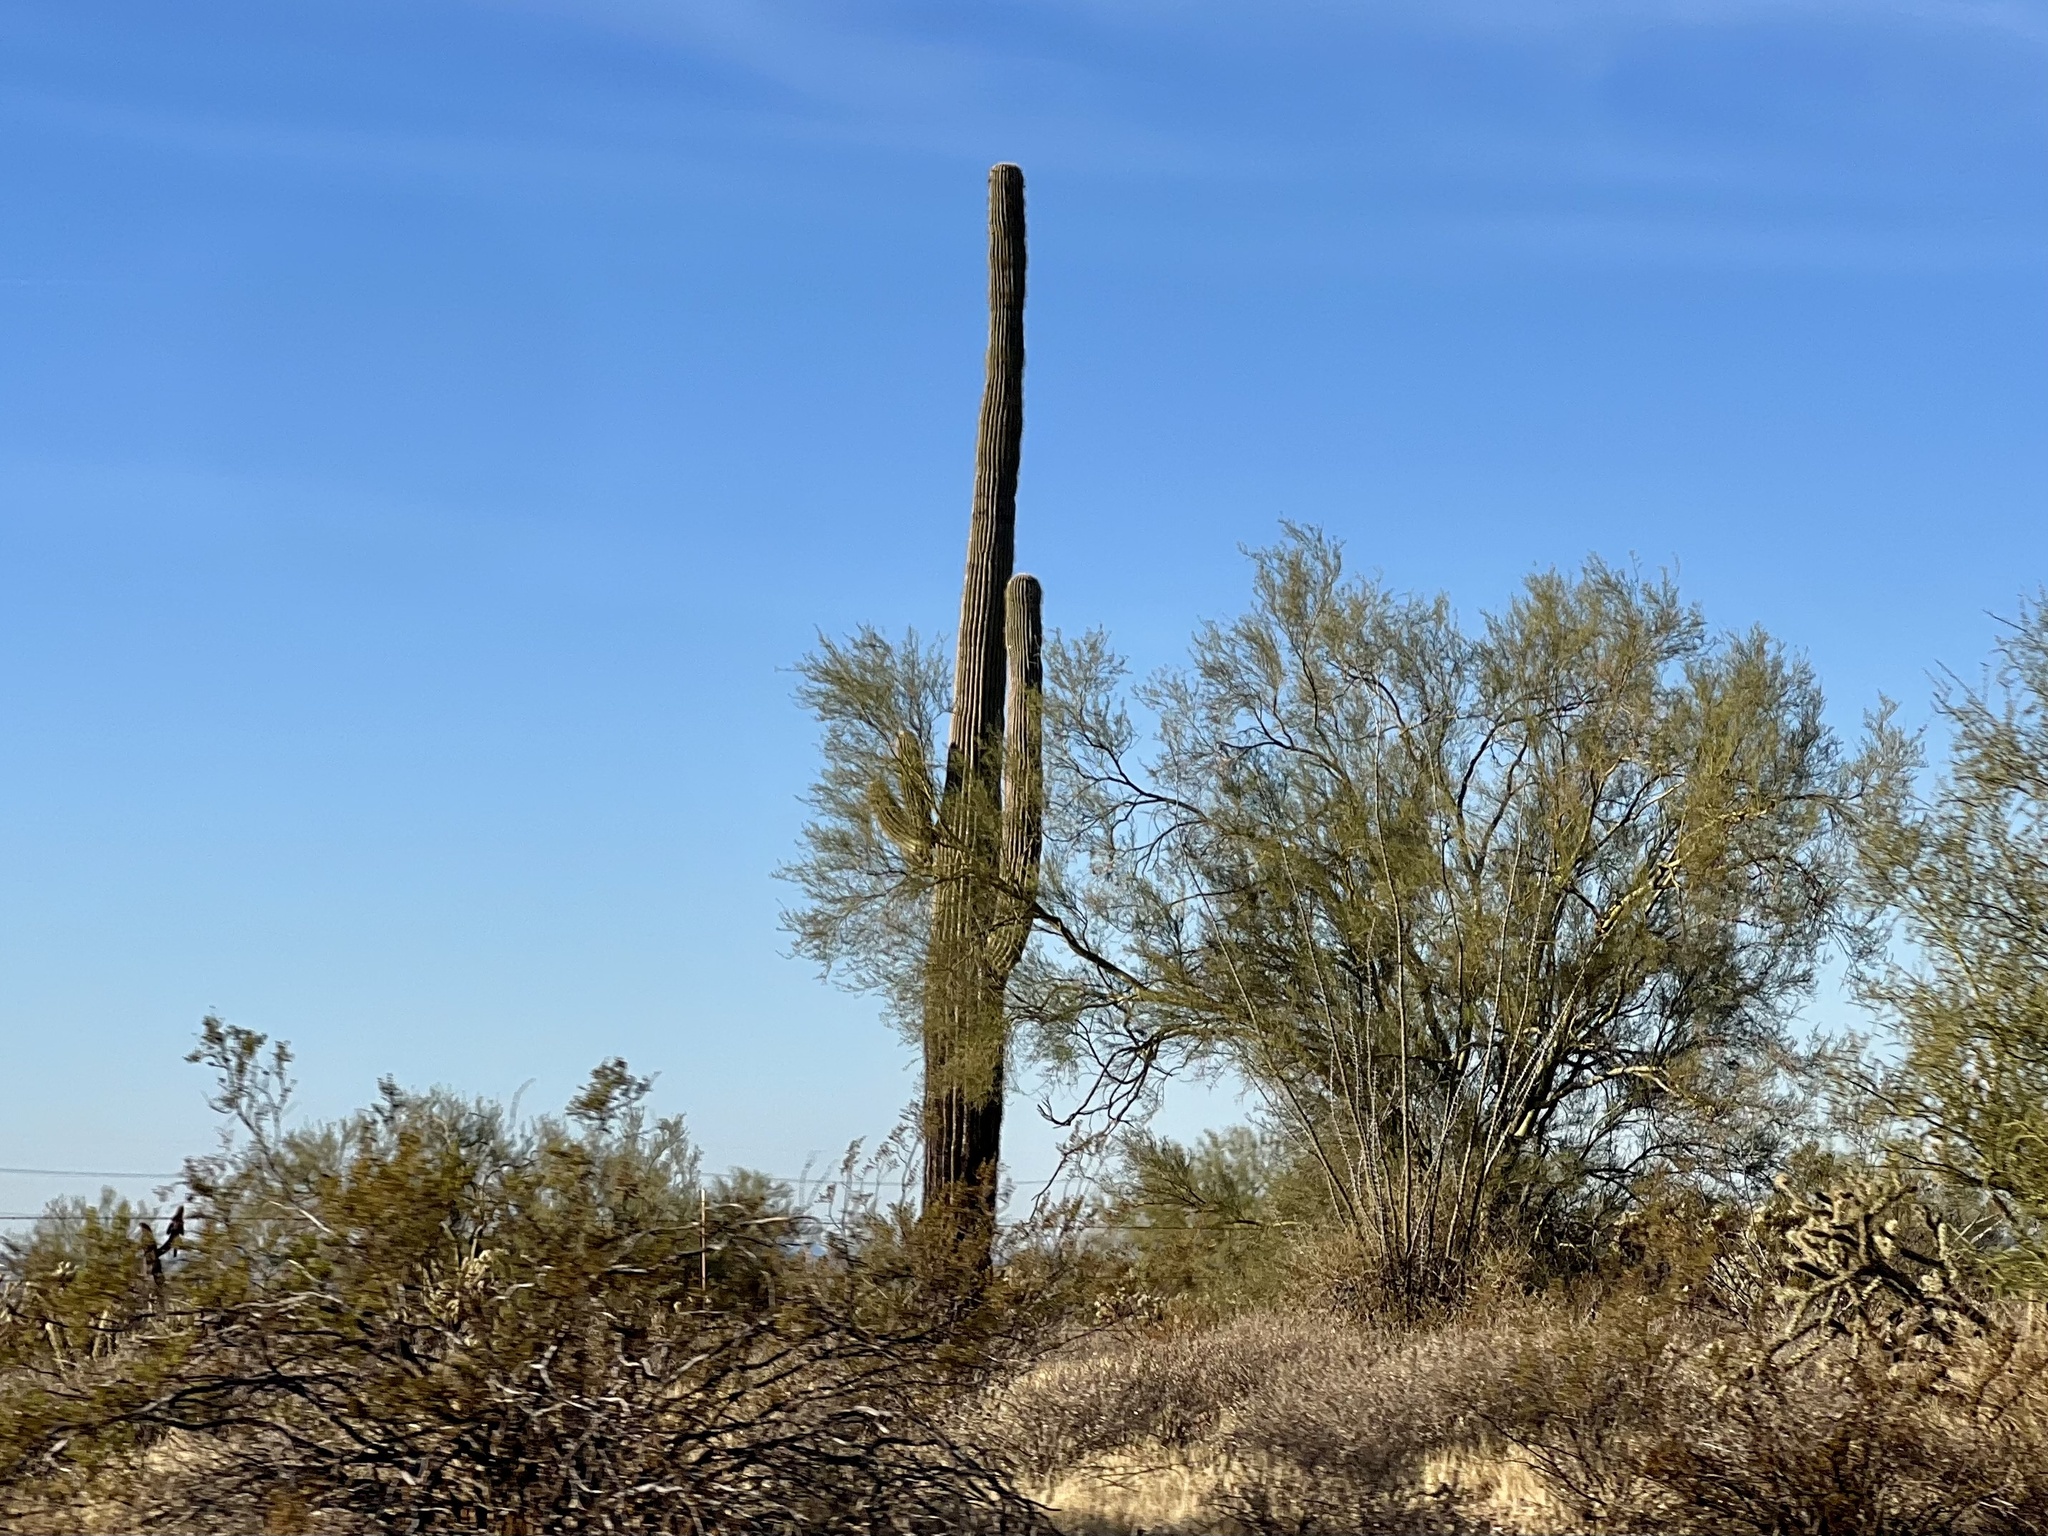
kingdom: Plantae
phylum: Tracheophyta
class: Magnoliopsida
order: Caryophyllales
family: Cactaceae
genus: Carnegiea
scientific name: Carnegiea gigantea
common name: Saguaro
